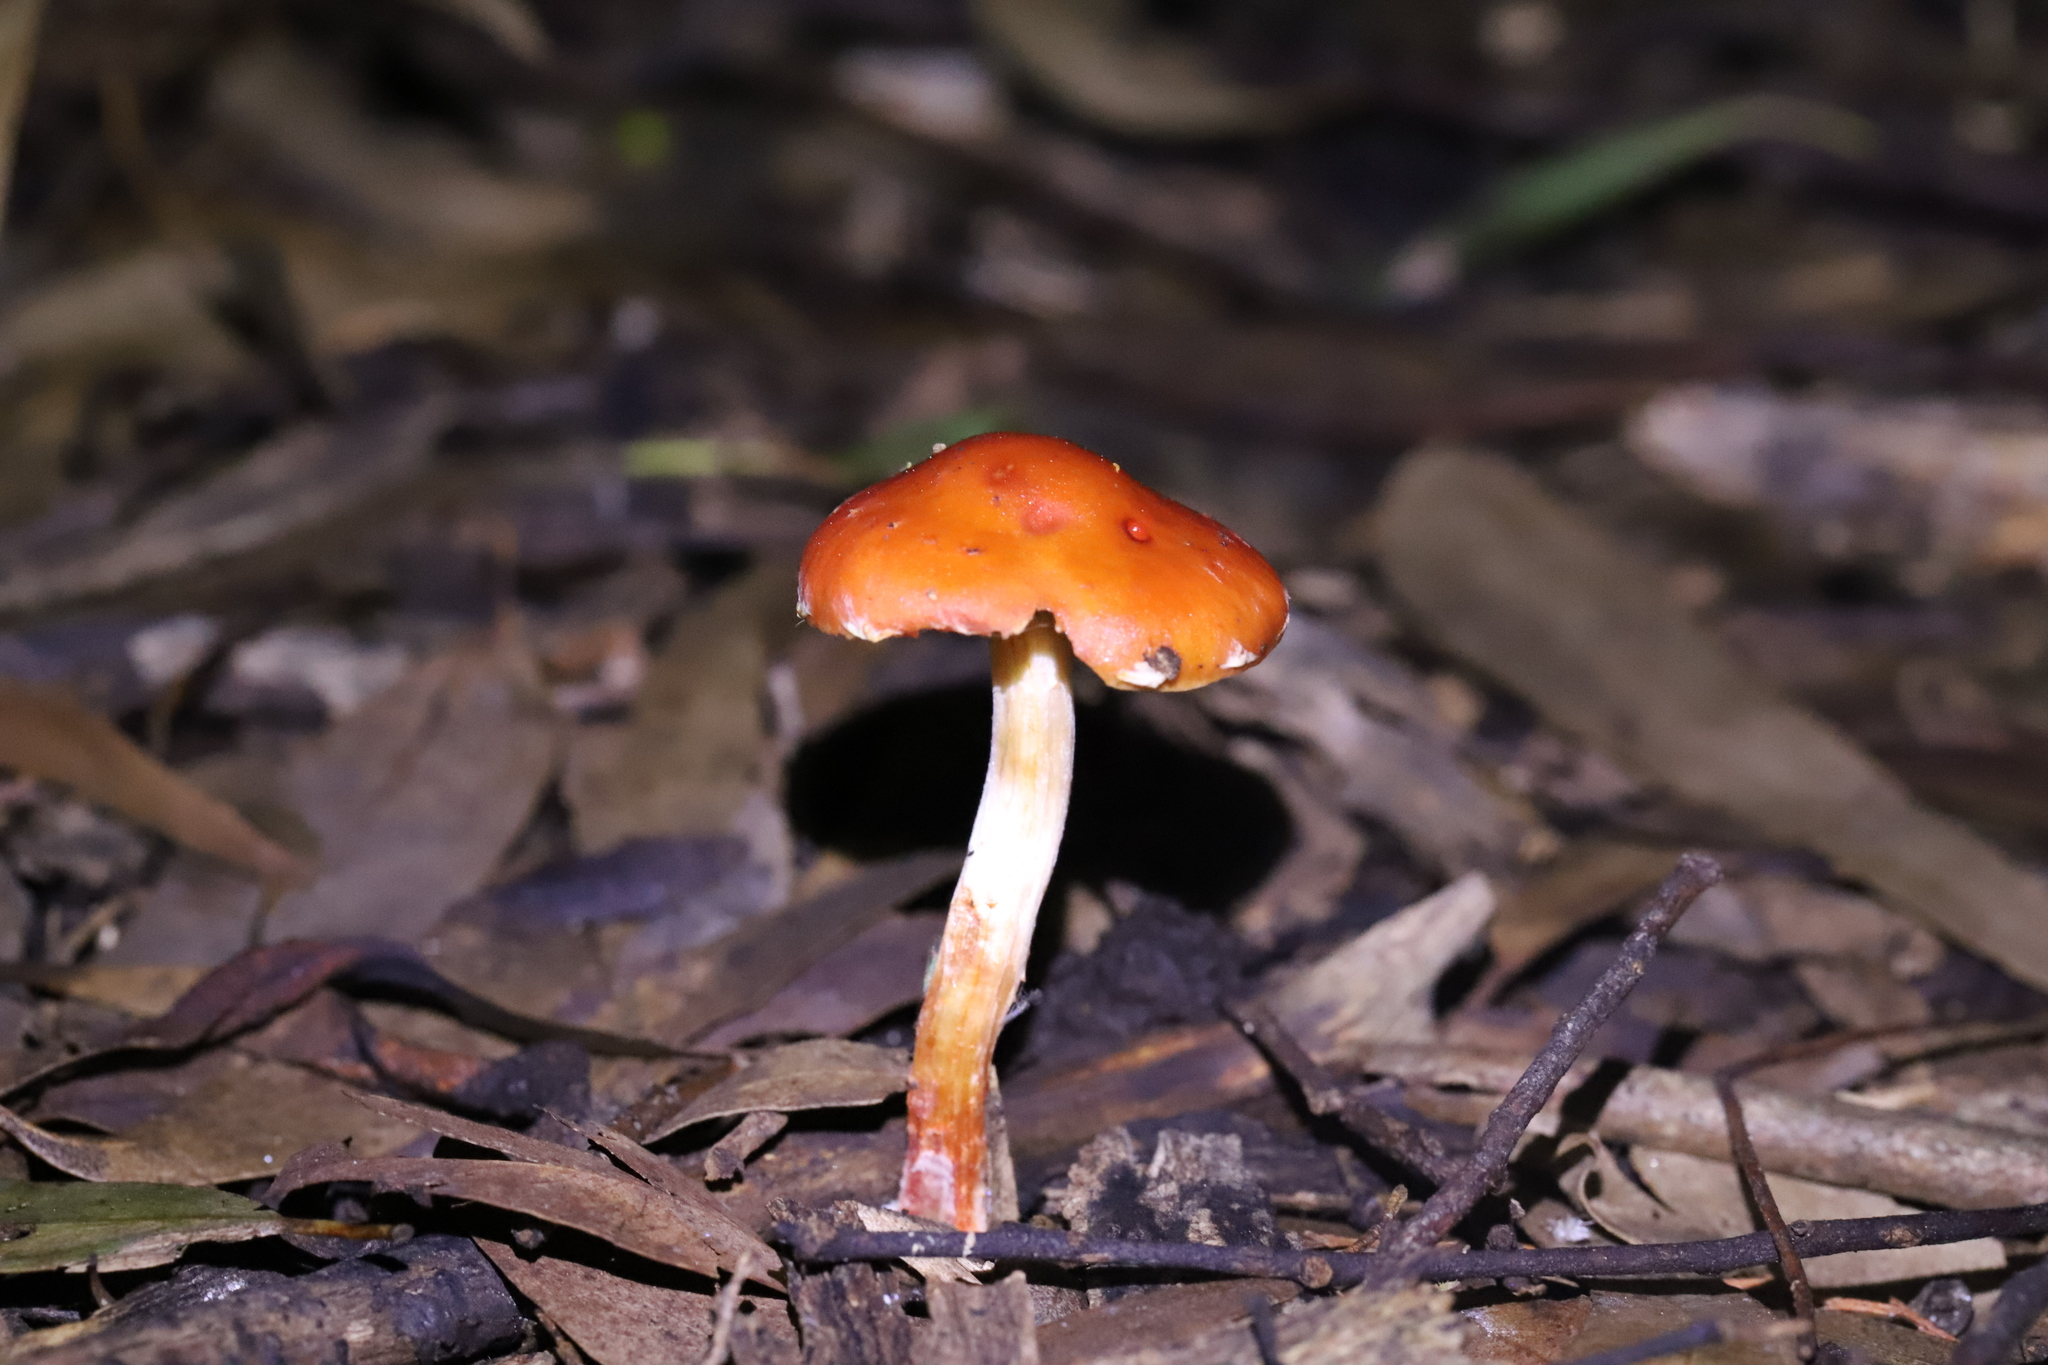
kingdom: Fungi
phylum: Basidiomycota
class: Agaricomycetes
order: Agaricales
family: Strophariaceae
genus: Leratiomyces
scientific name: Leratiomyces ceres
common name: Redlead roundhead
